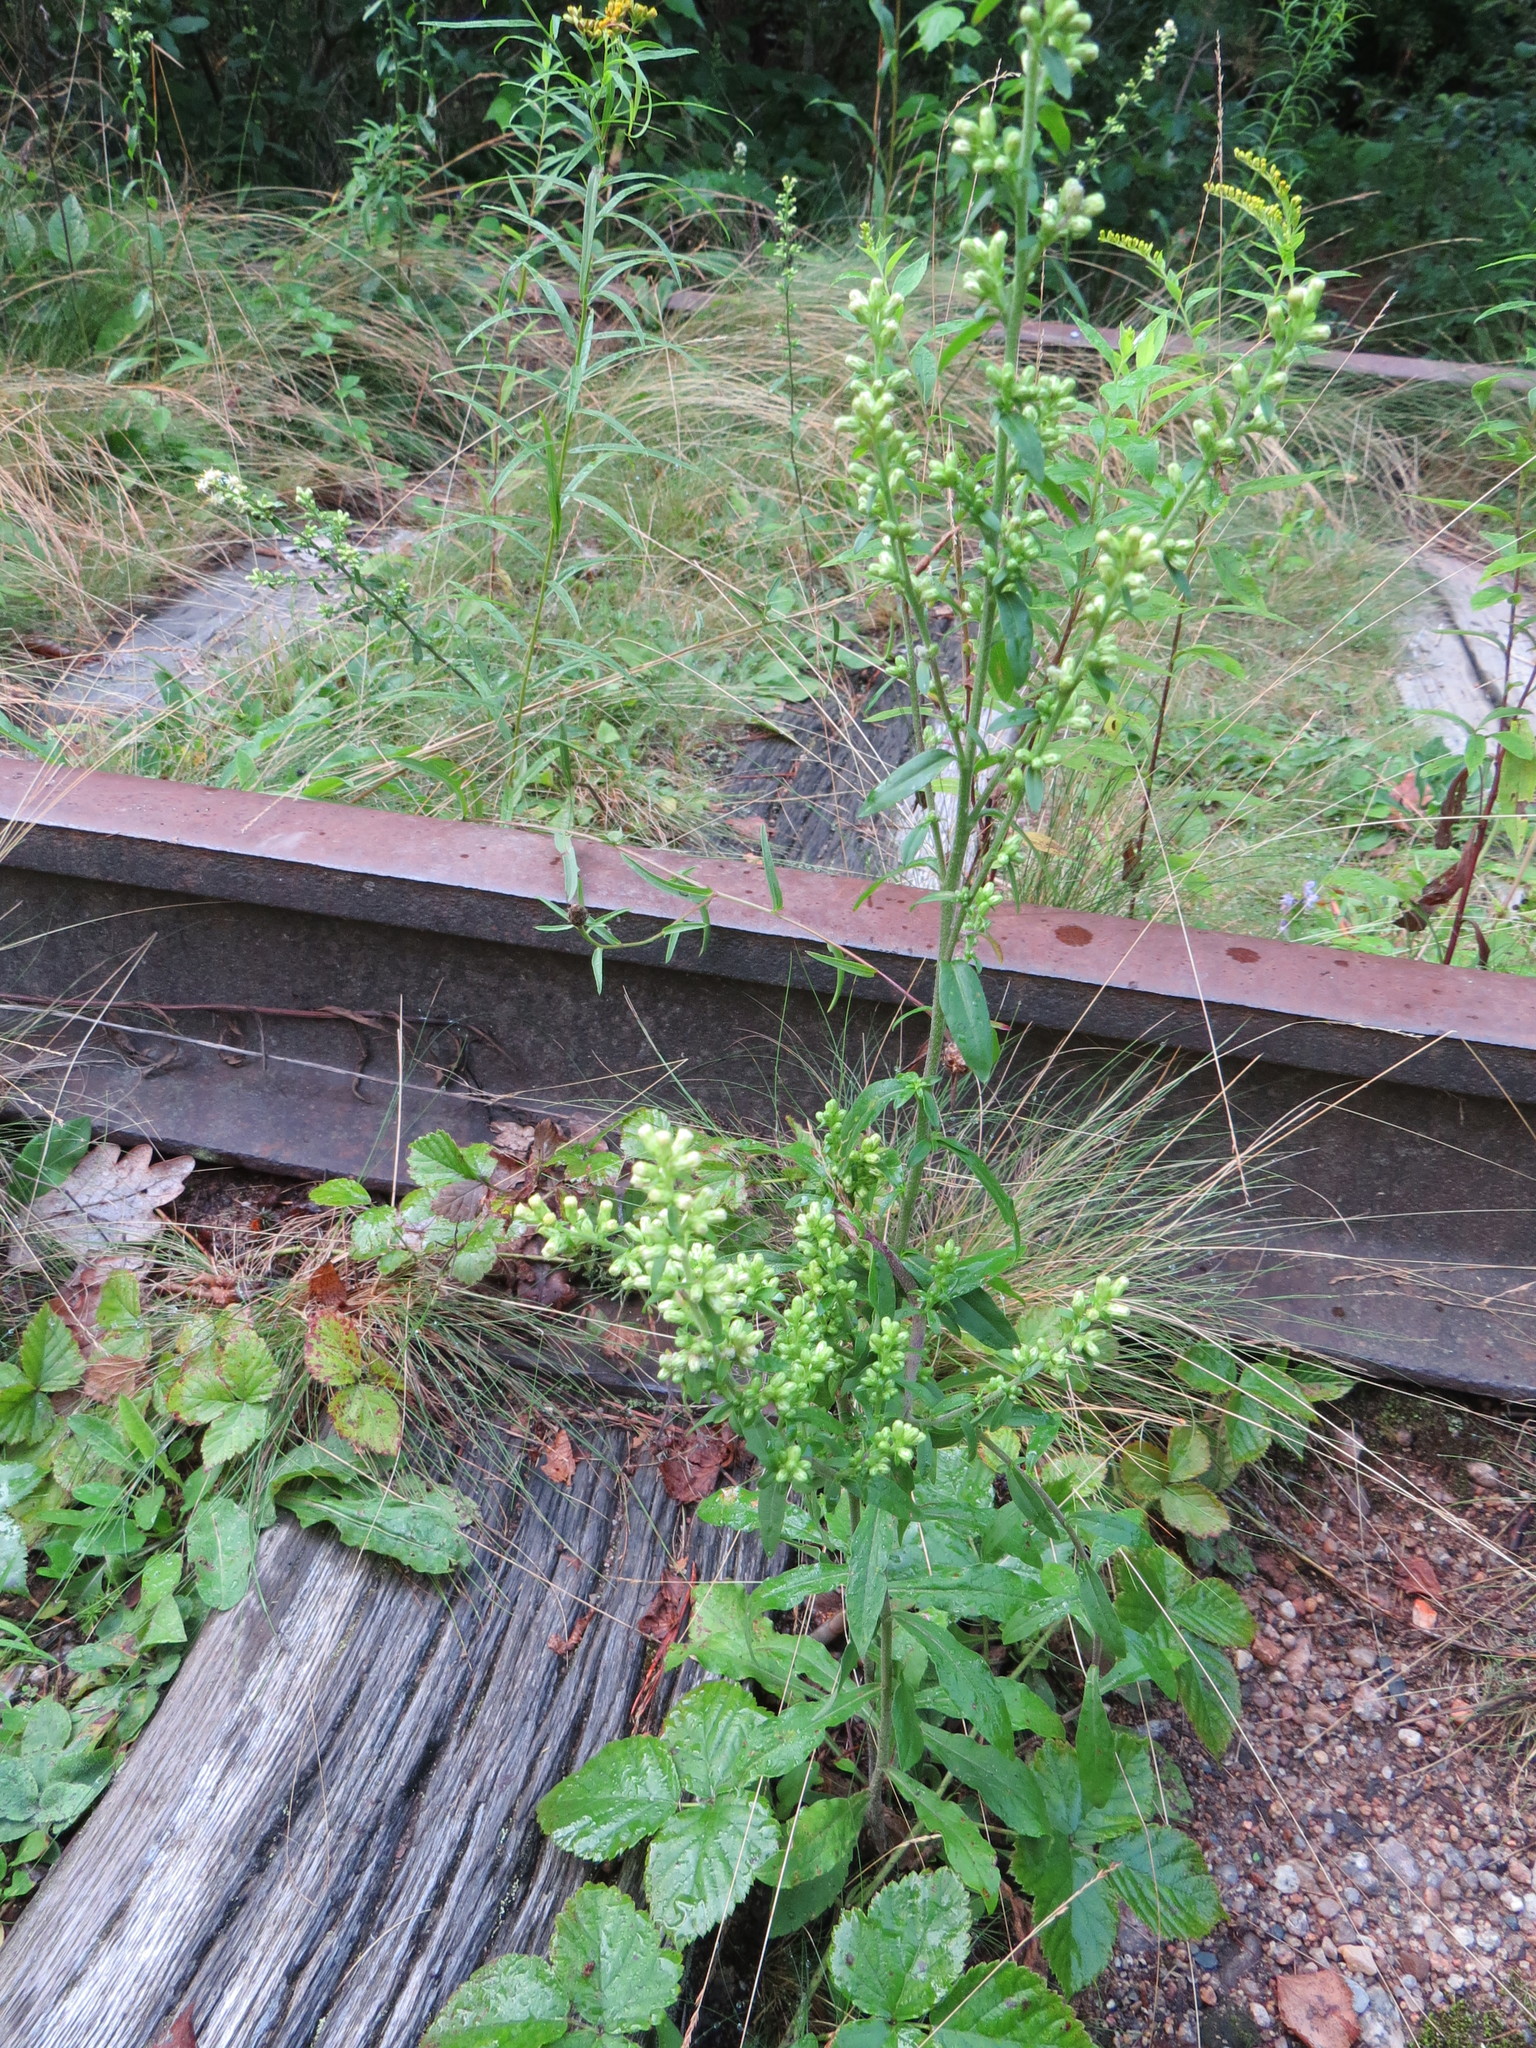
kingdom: Plantae
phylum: Tracheophyta
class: Magnoliopsida
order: Asterales
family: Asteraceae
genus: Solidago
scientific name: Solidago bicolor
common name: Silverrod
